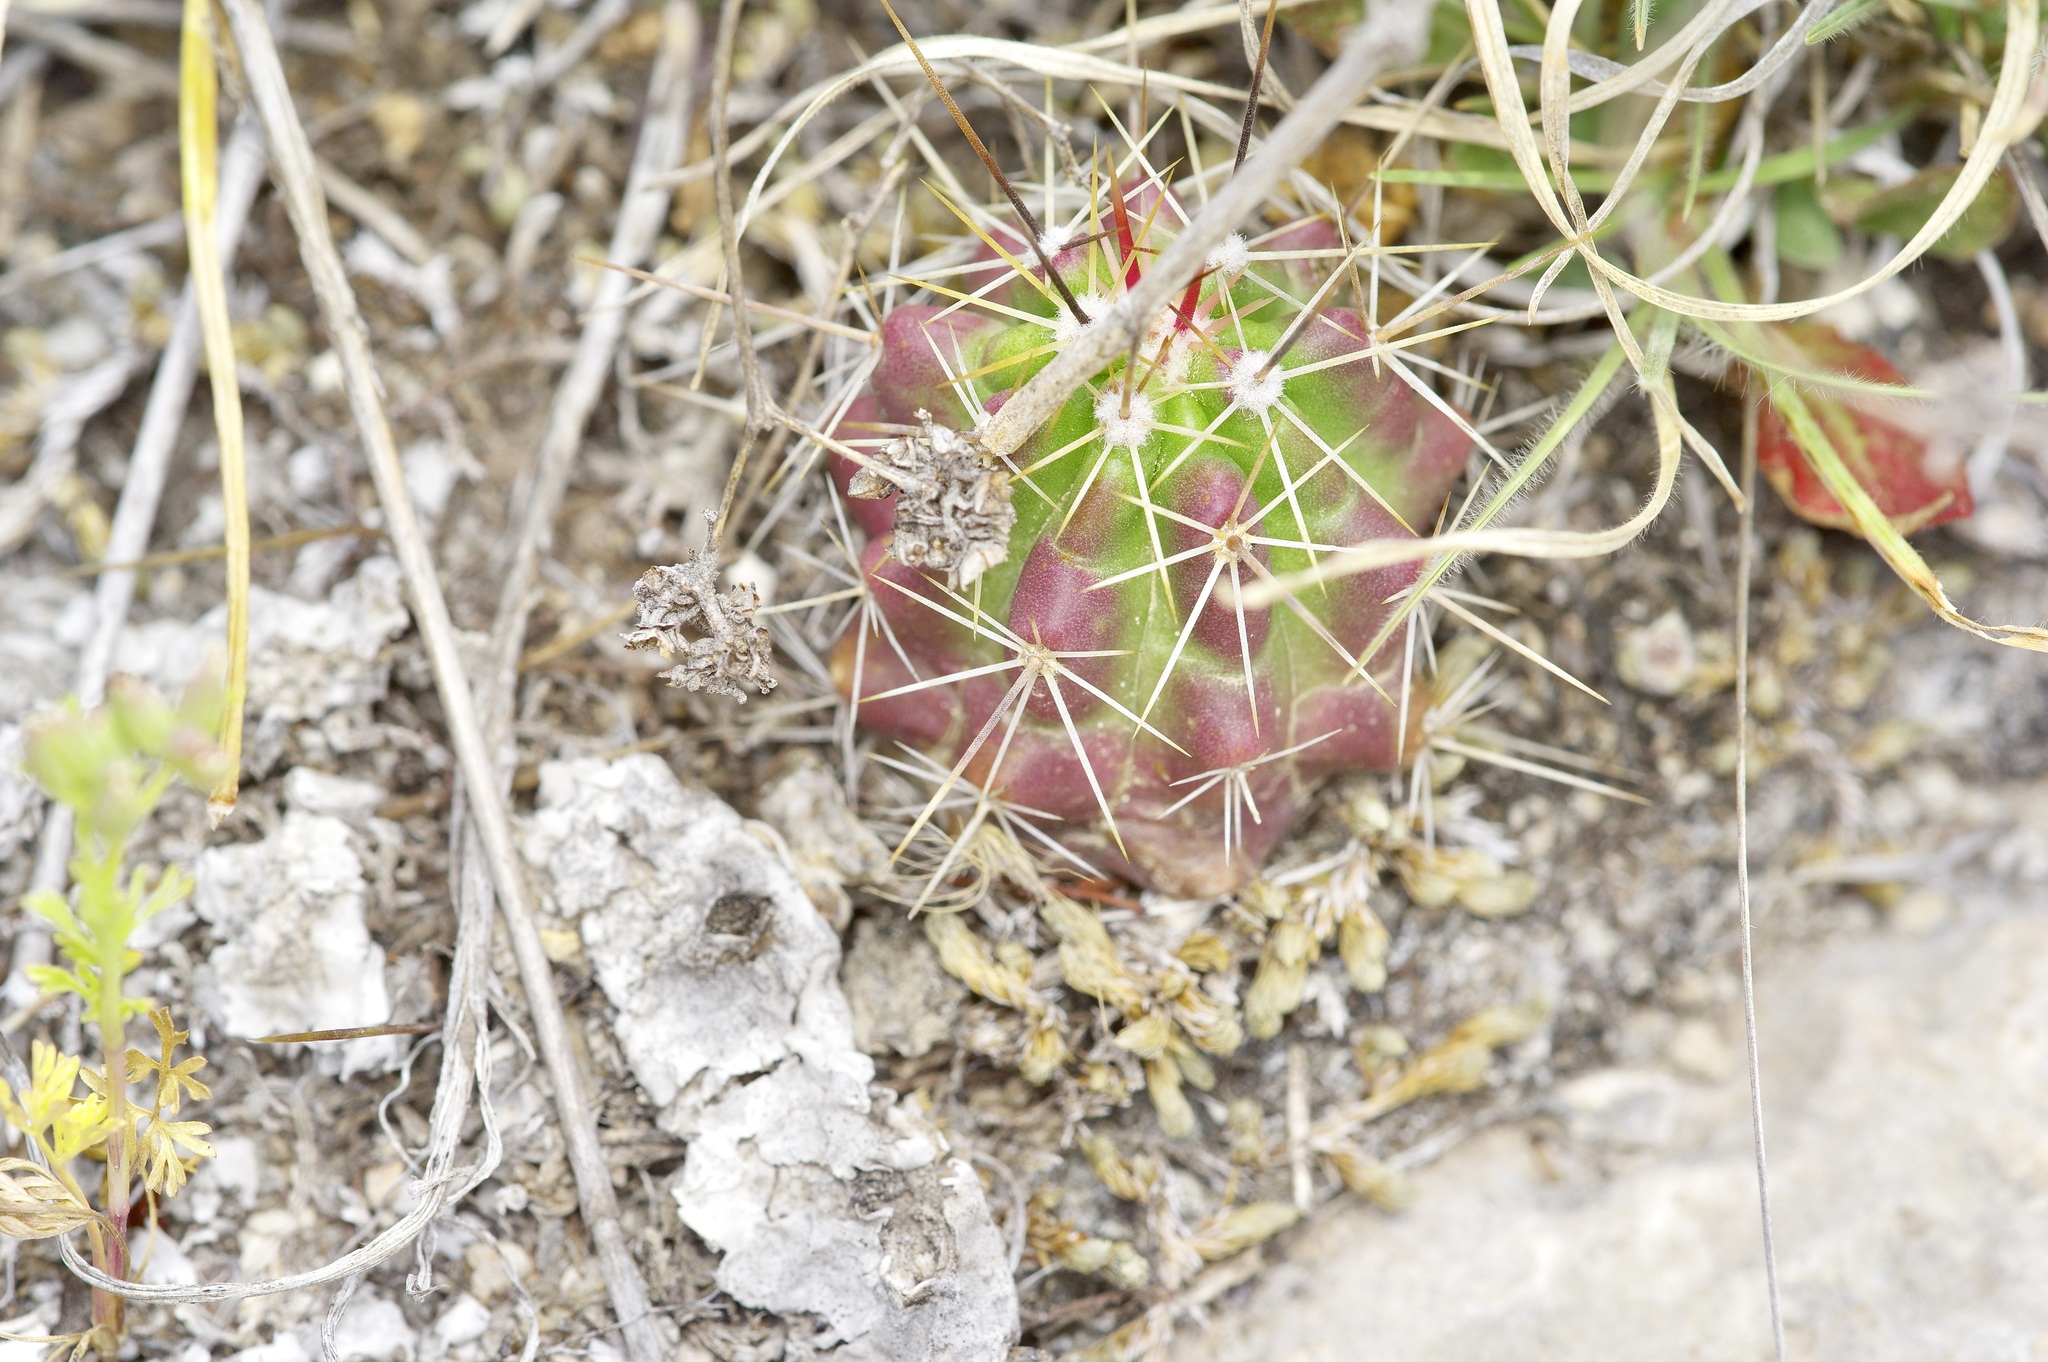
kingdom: Plantae
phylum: Tracheophyta
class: Magnoliopsida
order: Caryophyllales
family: Cactaceae
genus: Echinocereus
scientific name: Echinocereus enneacanthus
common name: Pitaya
